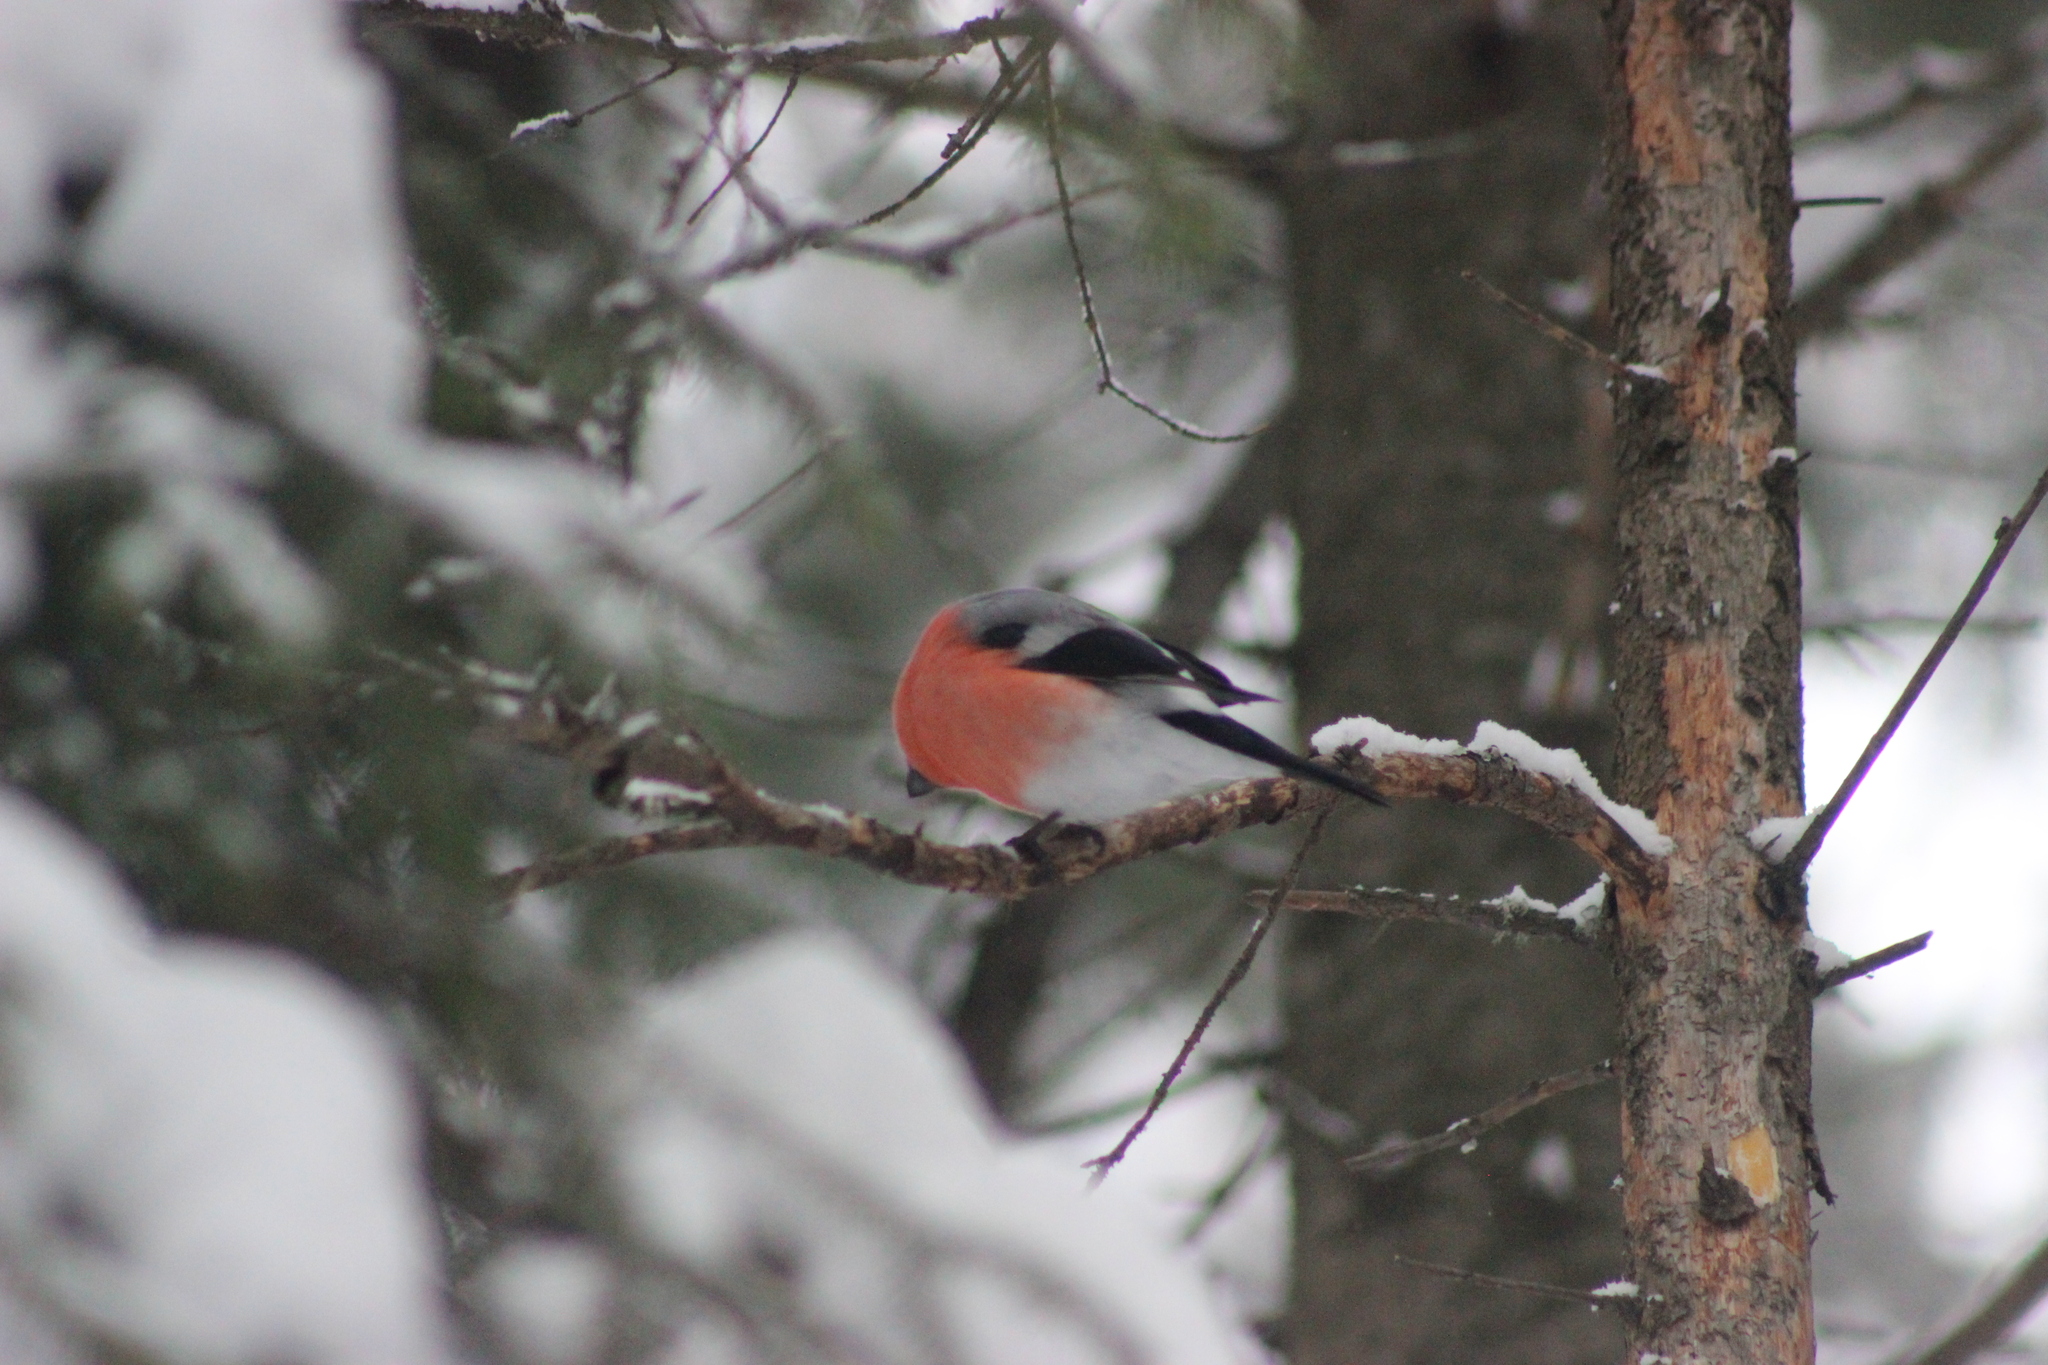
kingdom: Animalia
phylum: Chordata
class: Aves
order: Passeriformes
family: Fringillidae
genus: Pyrrhula
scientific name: Pyrrhula pyrrhula
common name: Eurasian bullfinch
